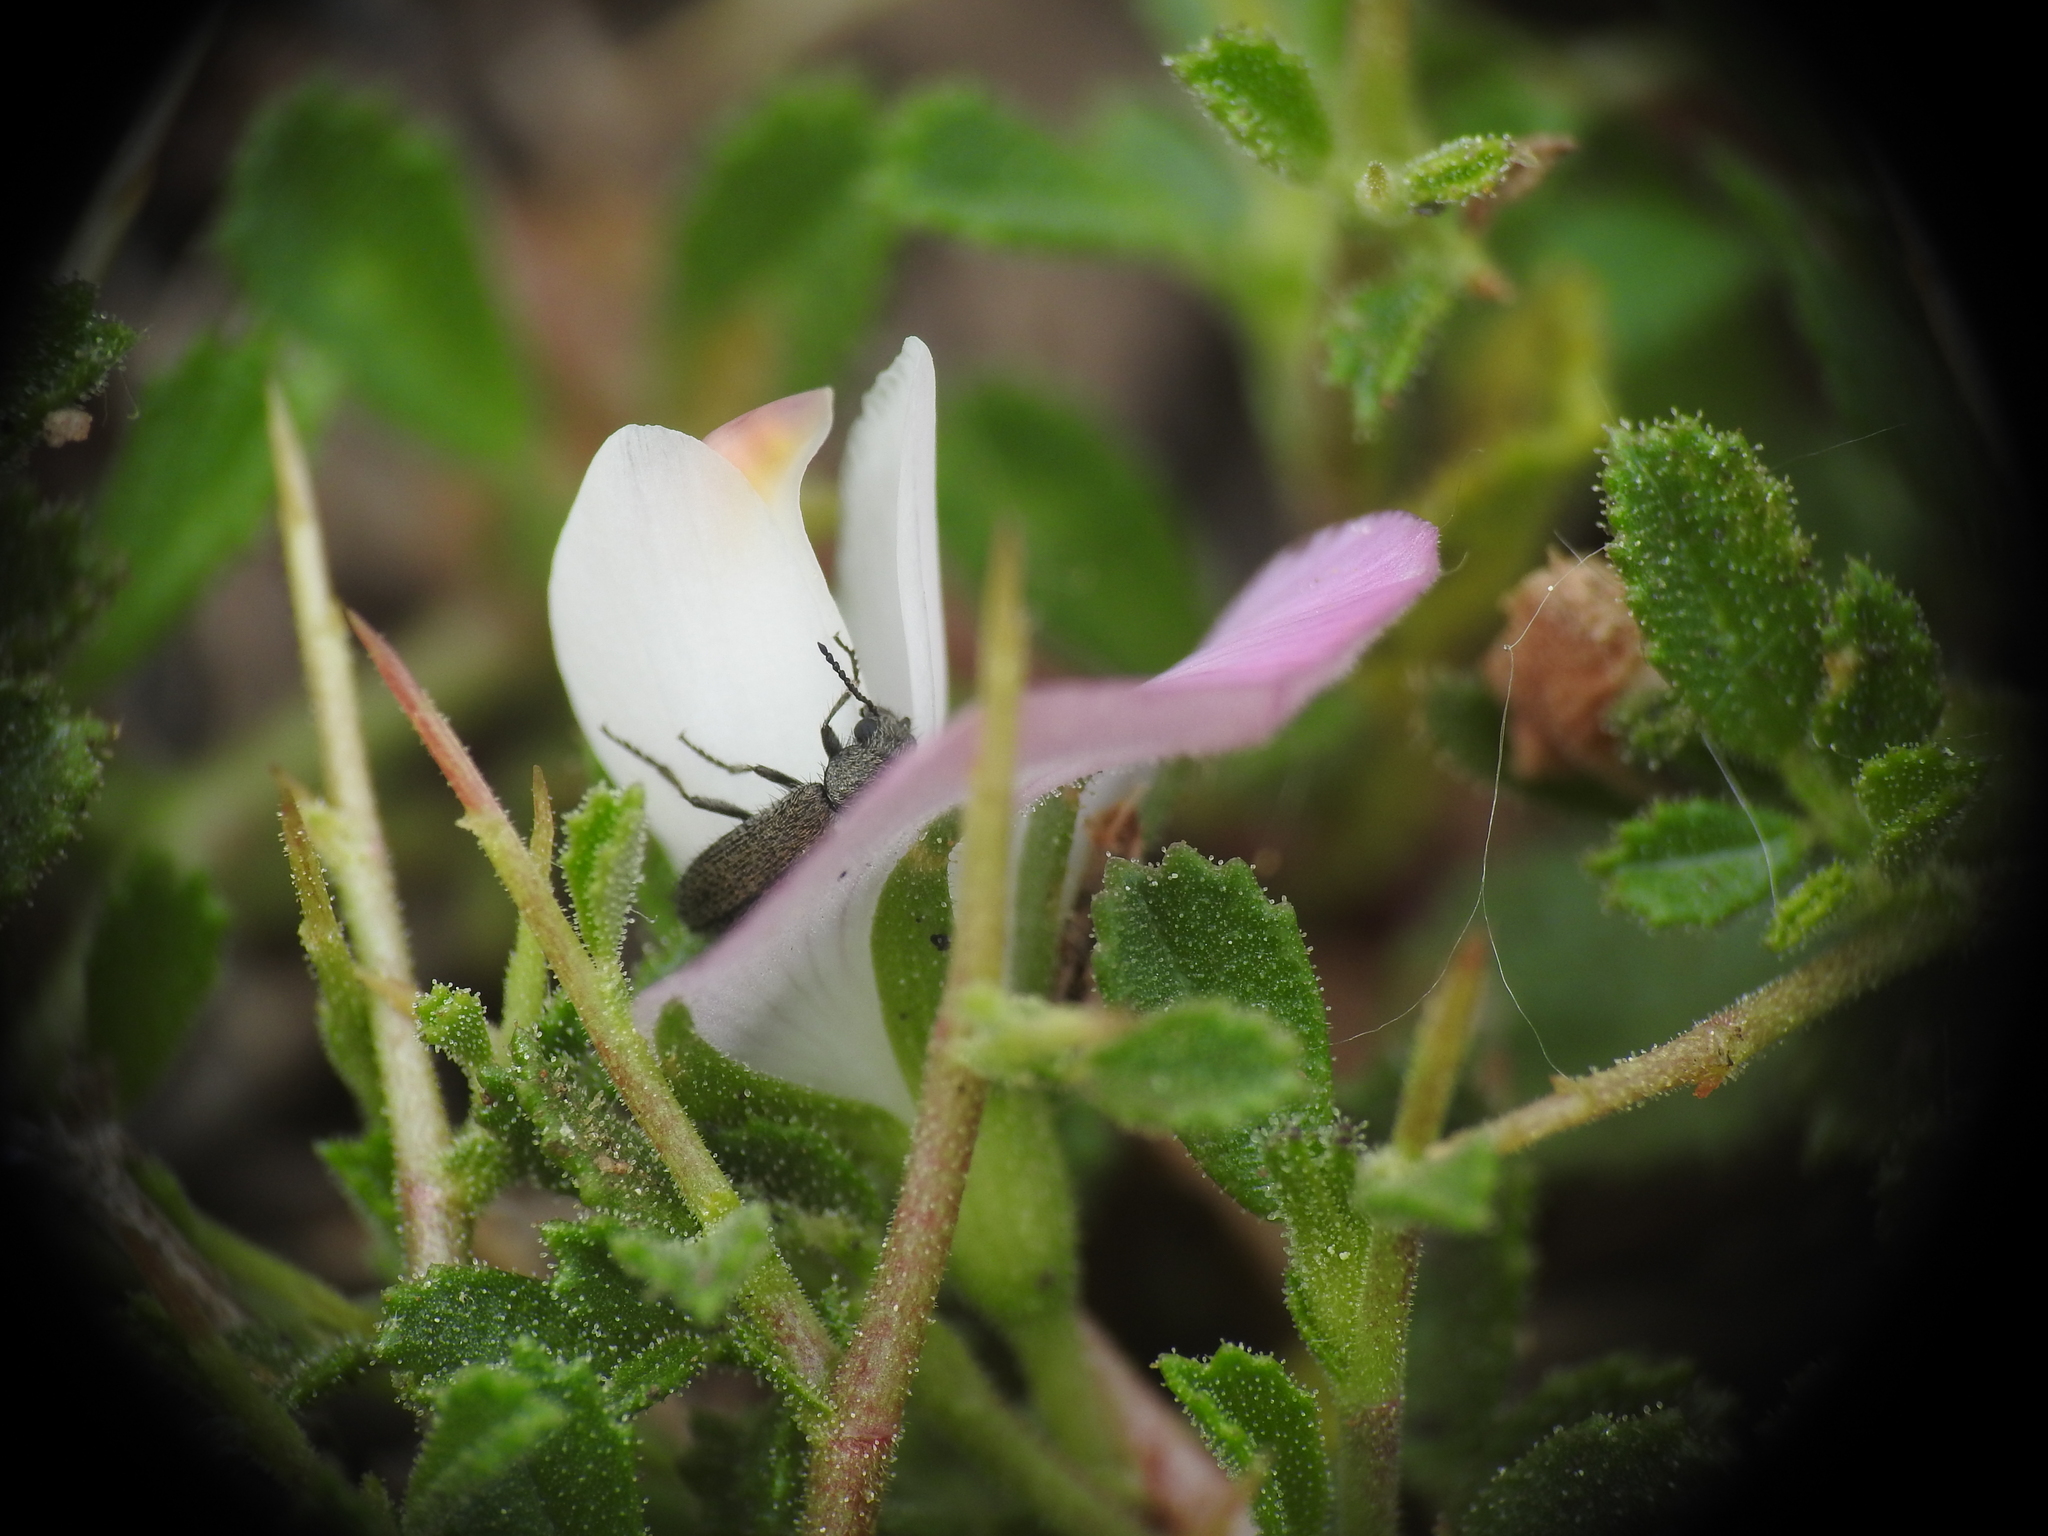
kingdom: Plantae
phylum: Tracheophyta
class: Magnoliopsida
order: Fabales
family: Fabaceae
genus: Ononis
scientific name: Ononis spinosa
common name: Spiny restharrow
